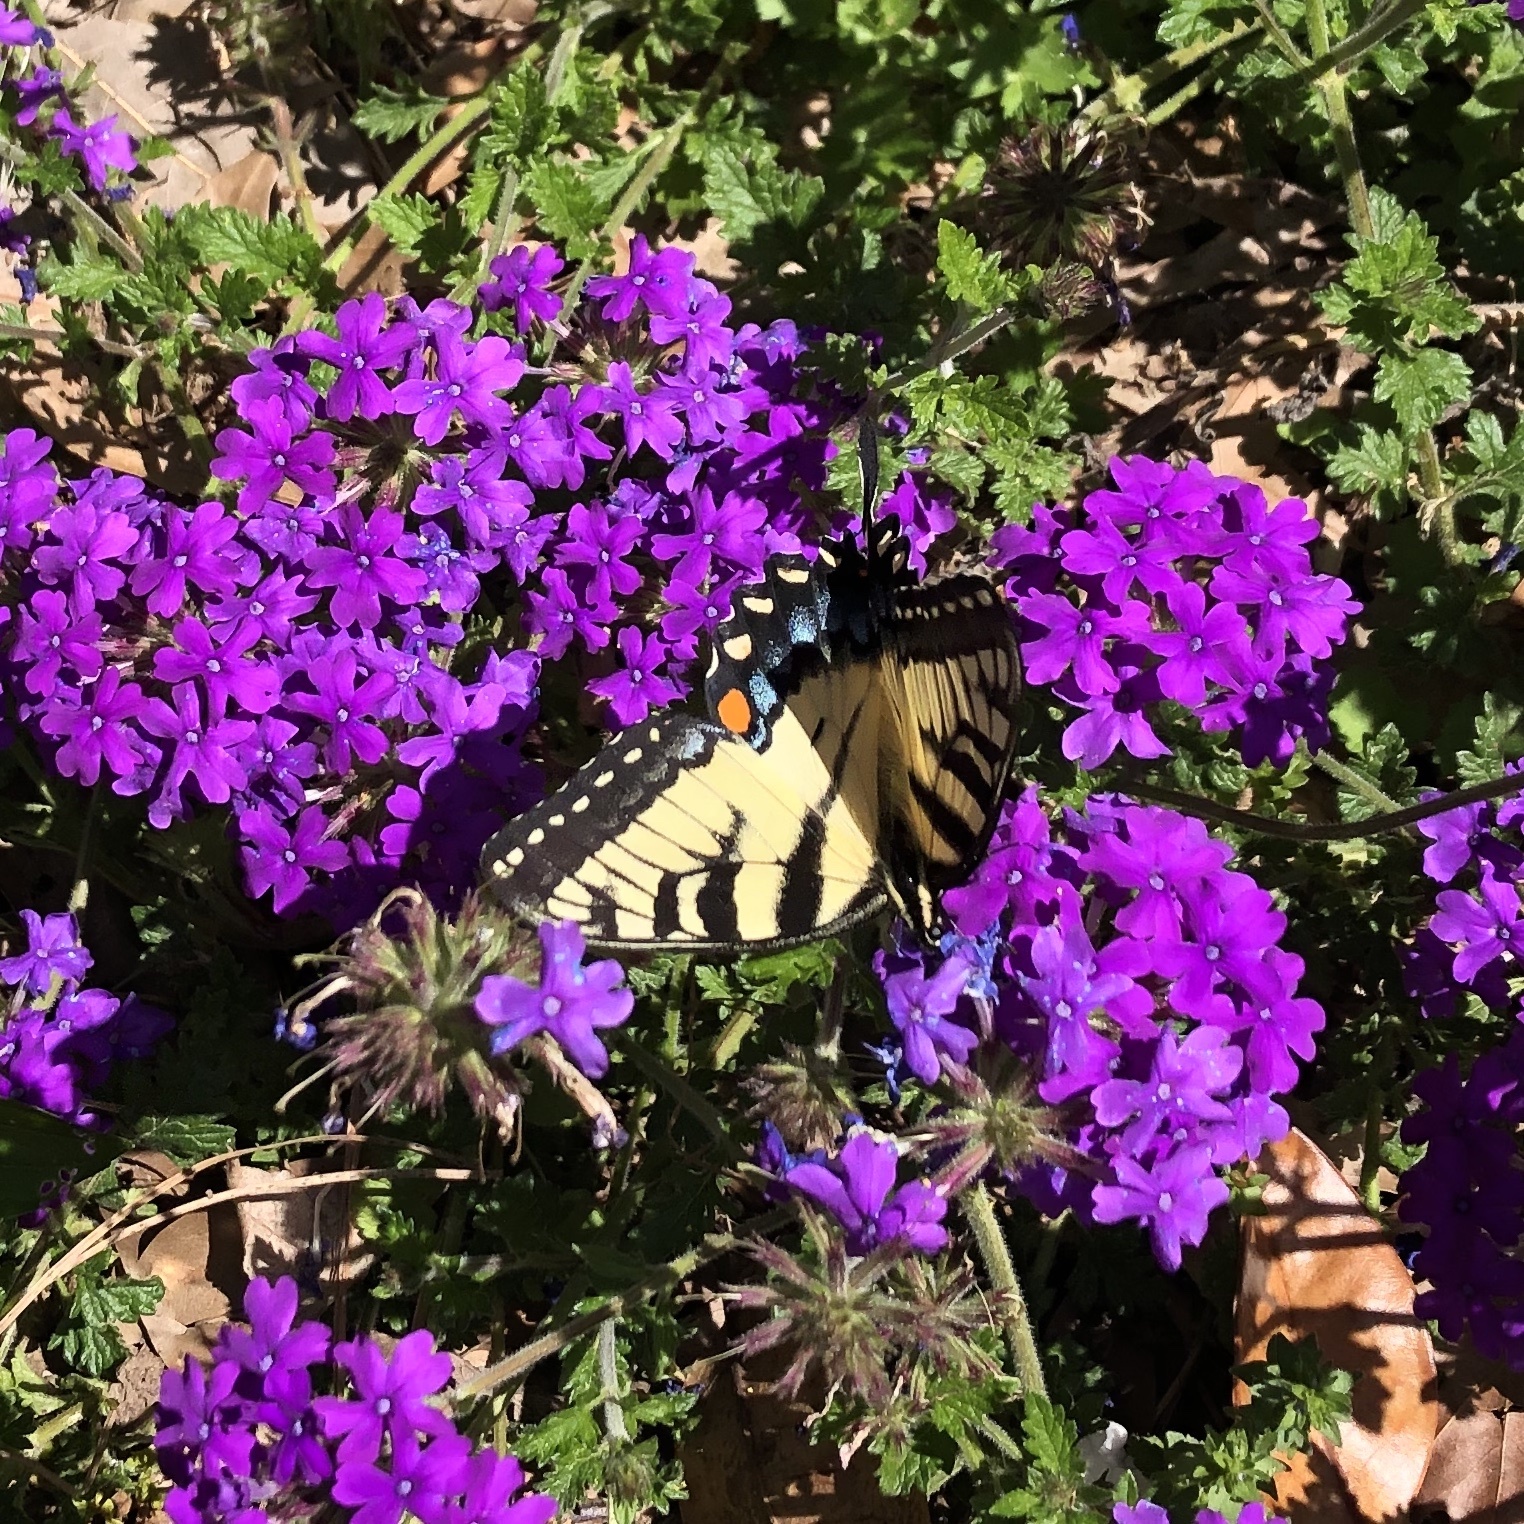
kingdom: Animalia
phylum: Arthropoda
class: Insecta
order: Lepidoptera
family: Papilionidae
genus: Papilio
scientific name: Papilio glaucus
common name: Tiger swallowtail
